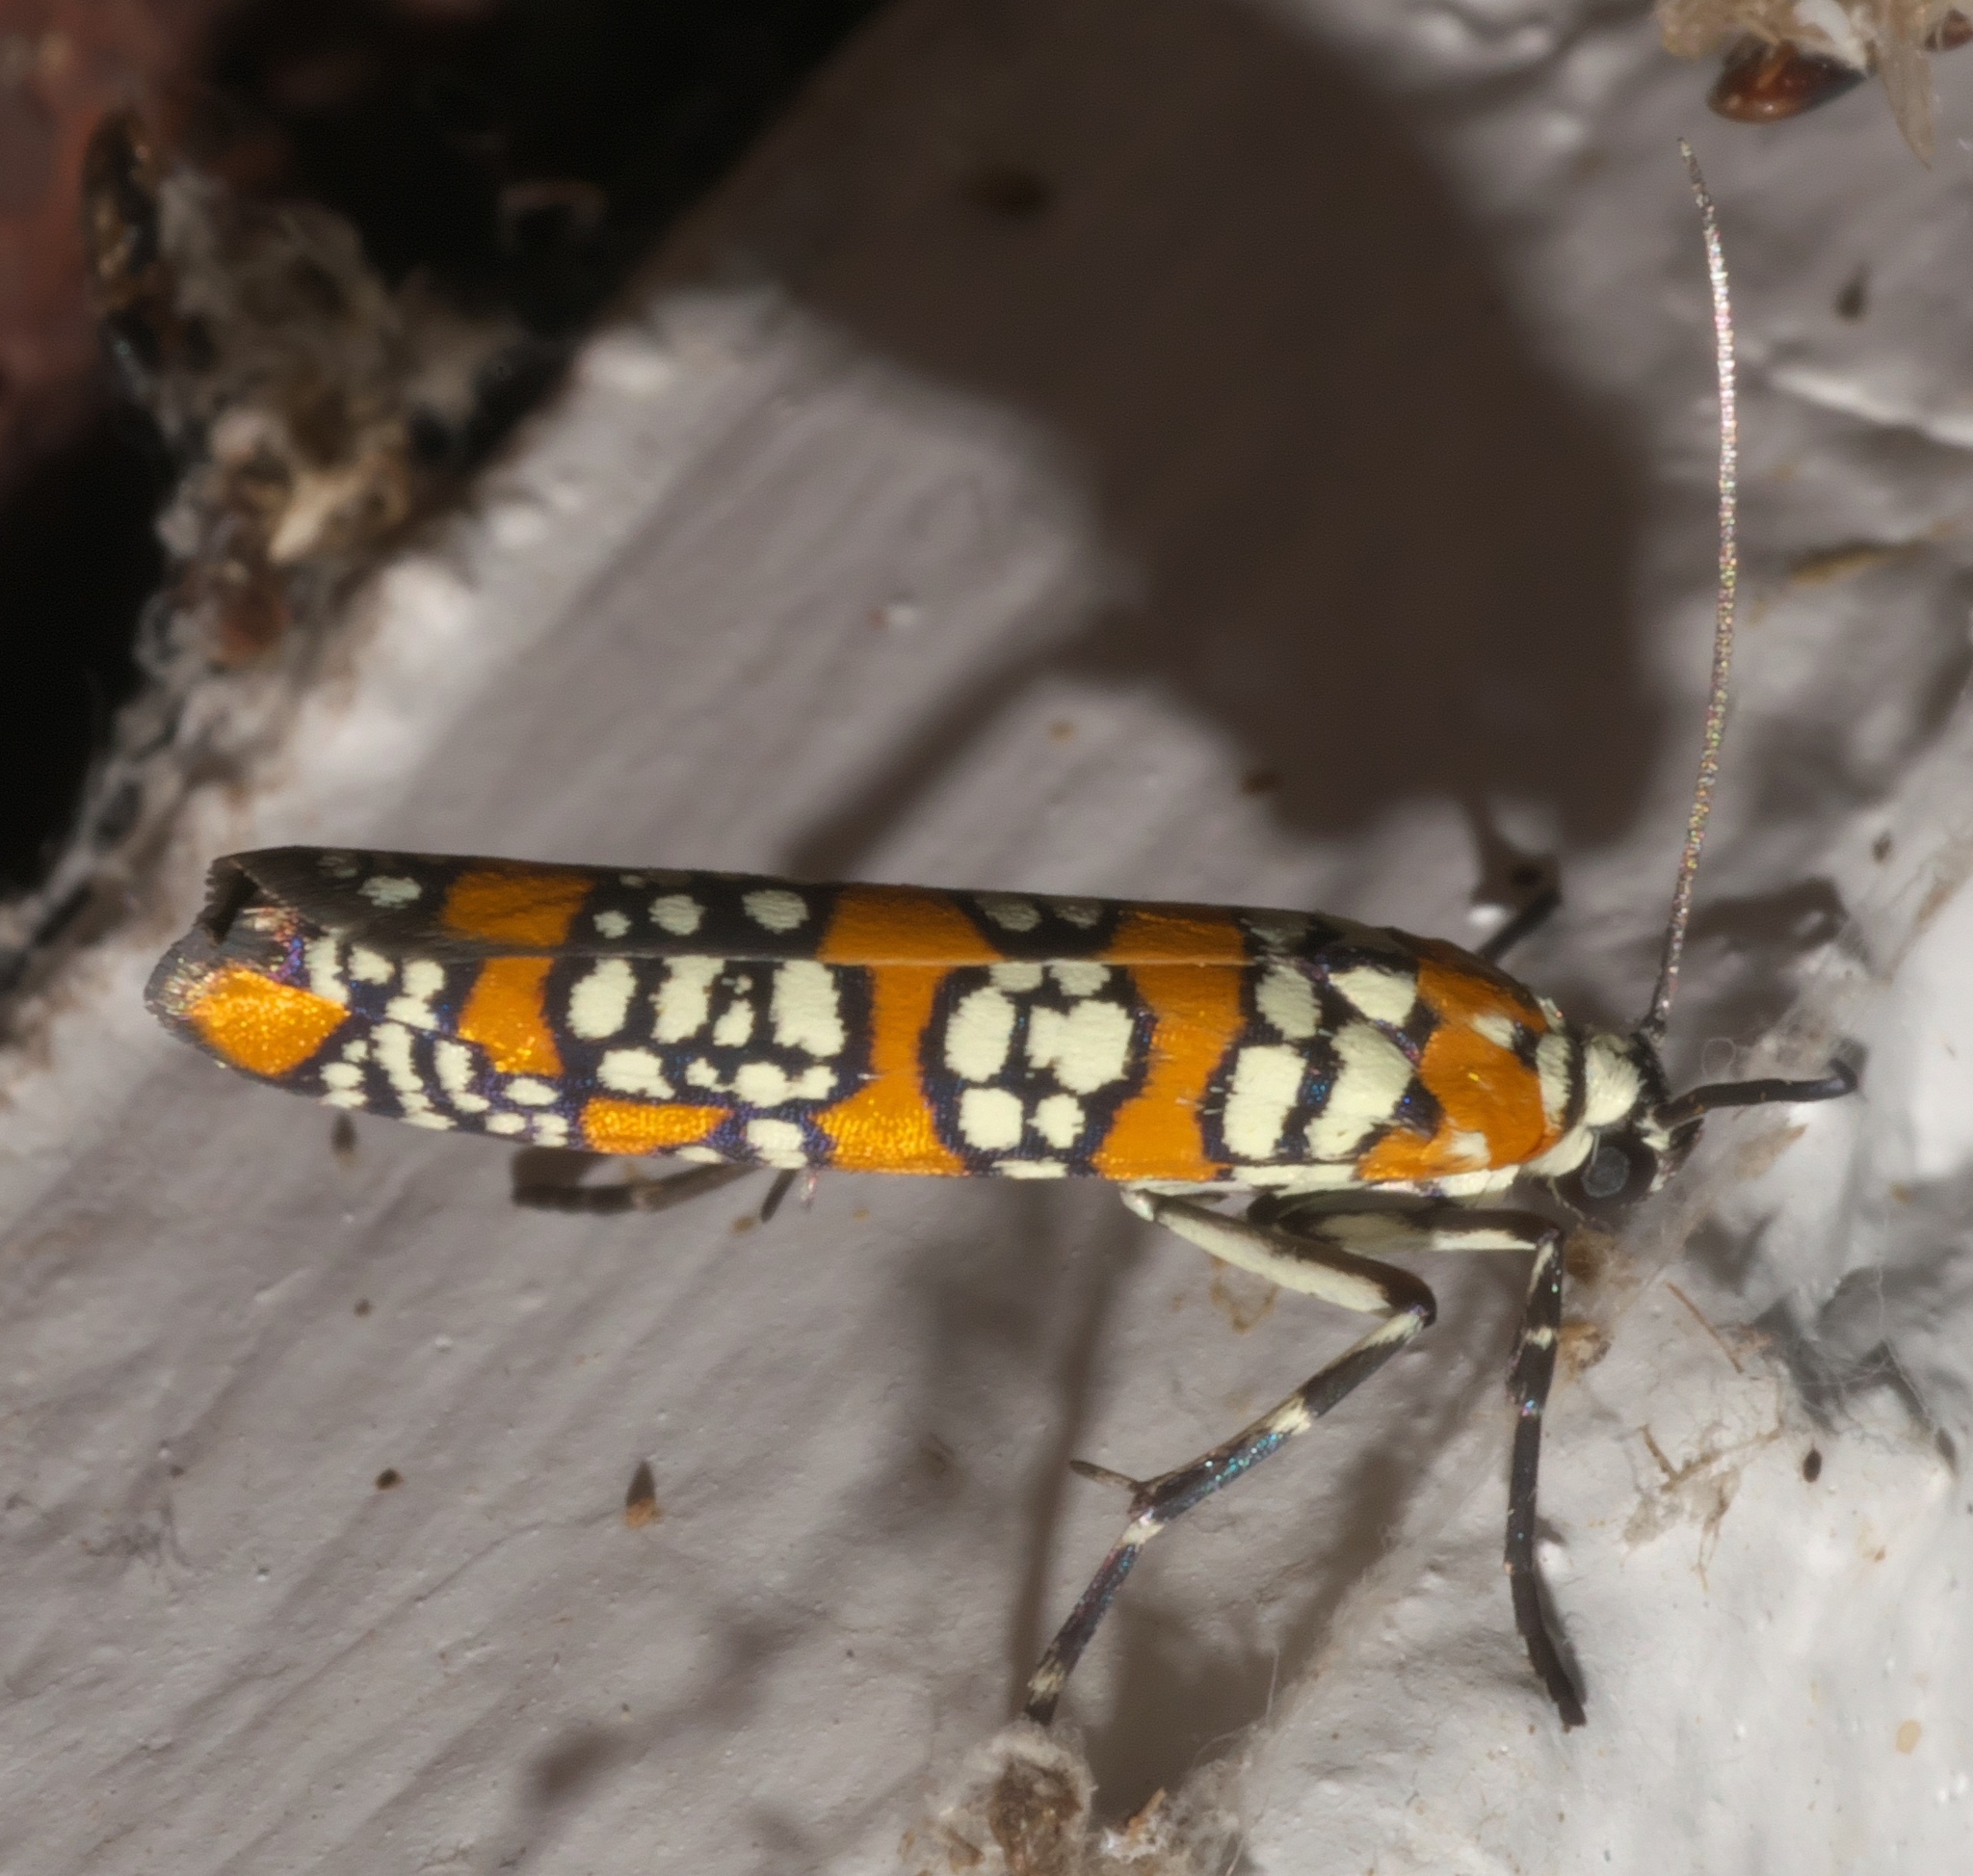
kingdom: Animalia
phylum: Arthropoda
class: Insecta
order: Lepidoptera
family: Attevidae
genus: Atteva
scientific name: Atteva punctella
